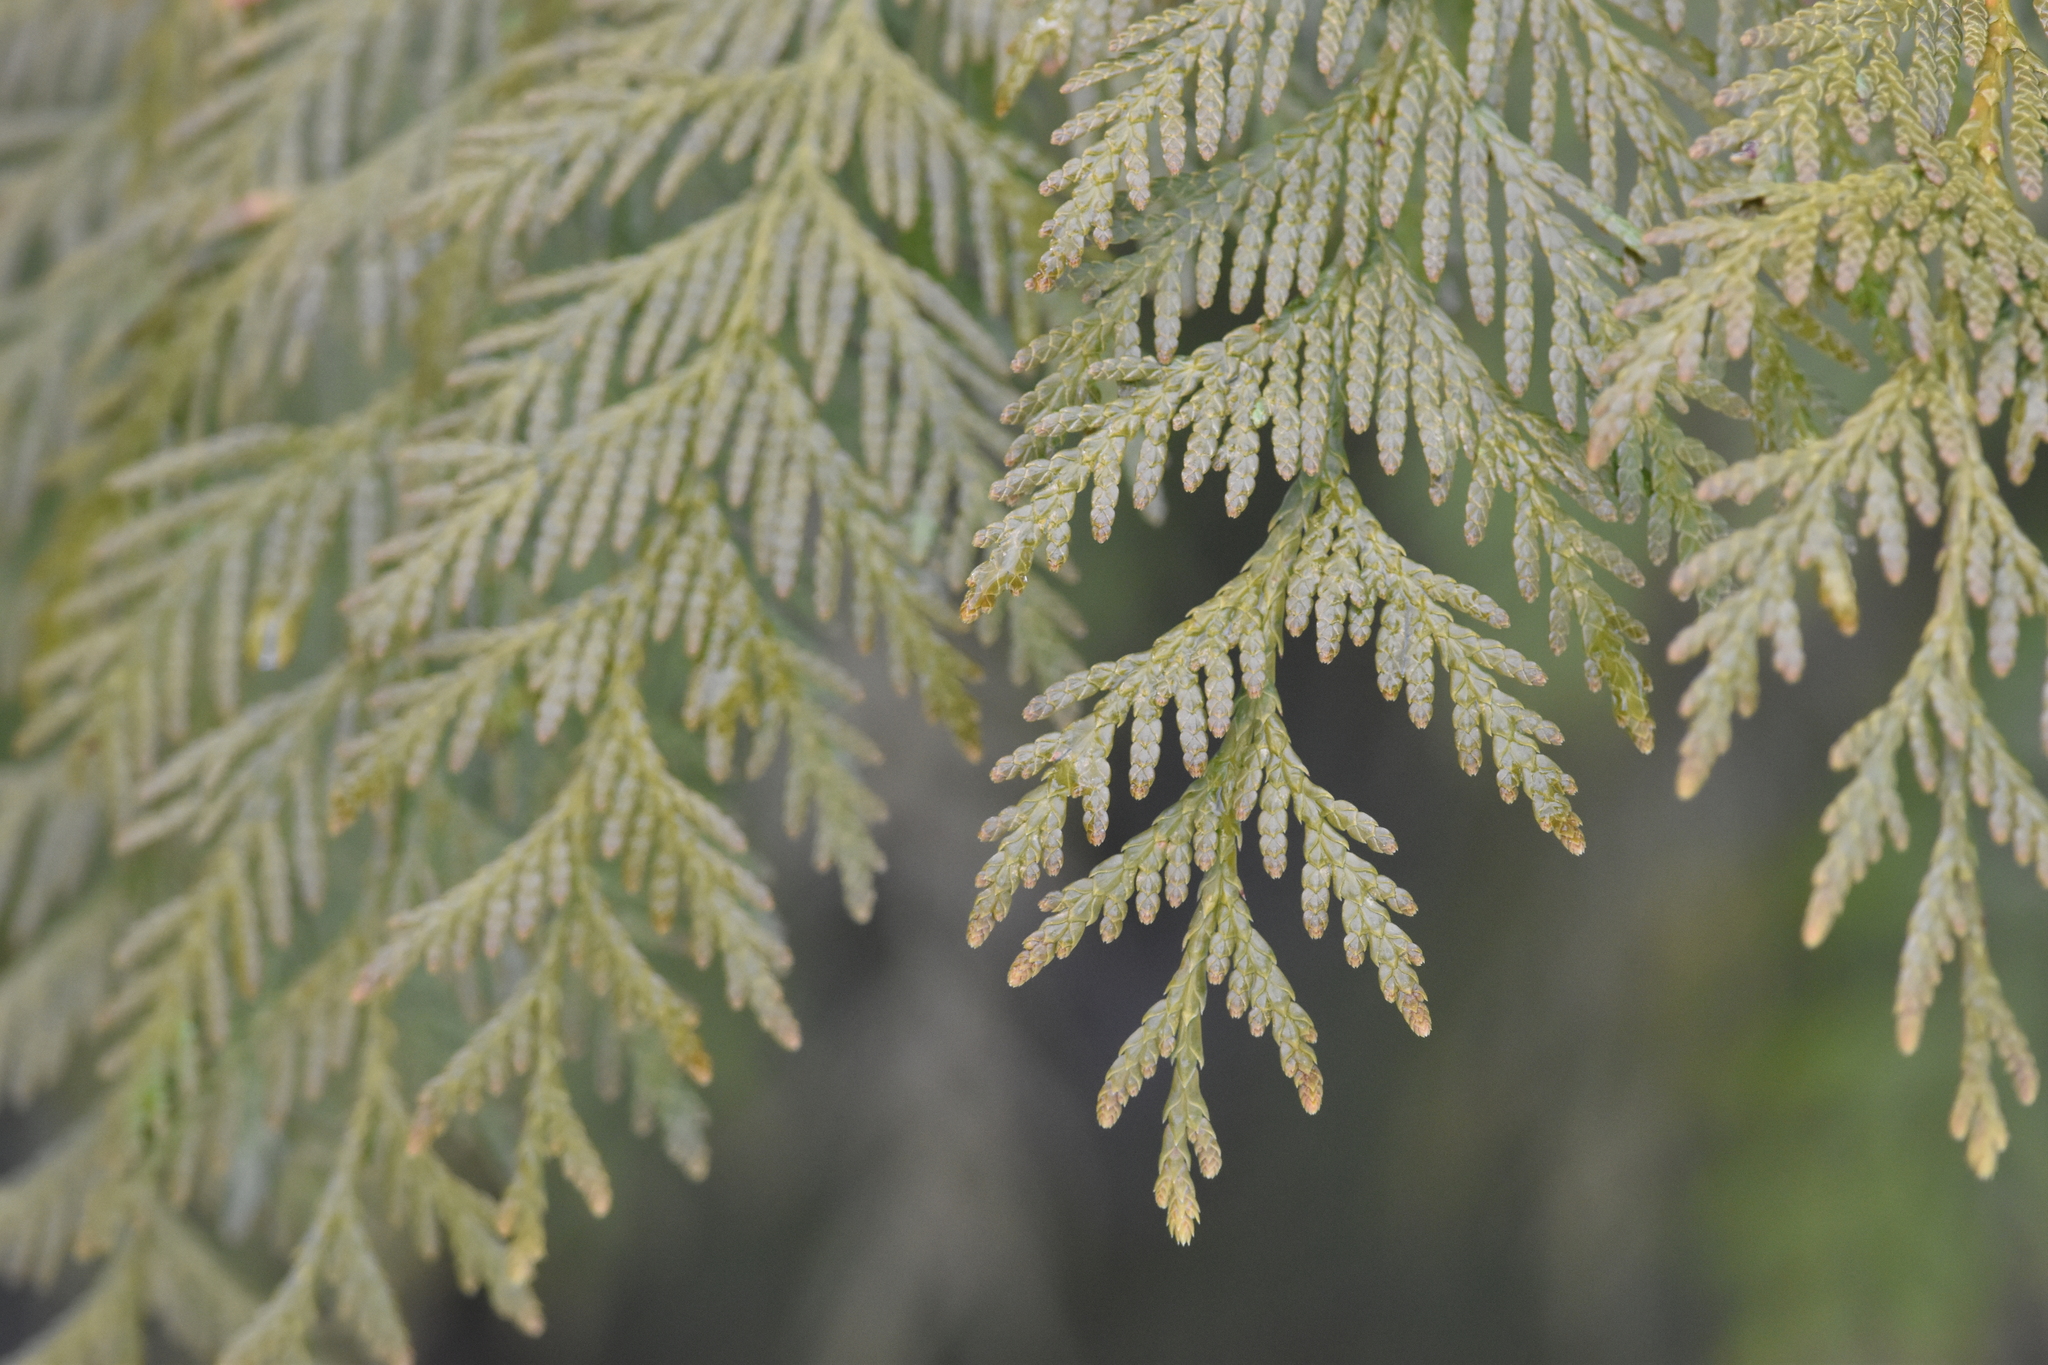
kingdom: Plantae
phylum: Tracheophyta
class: Pinopsida
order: Pinales
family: Cupressaceae
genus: Thuja
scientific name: Thuja plicata
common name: Western red-cedar
